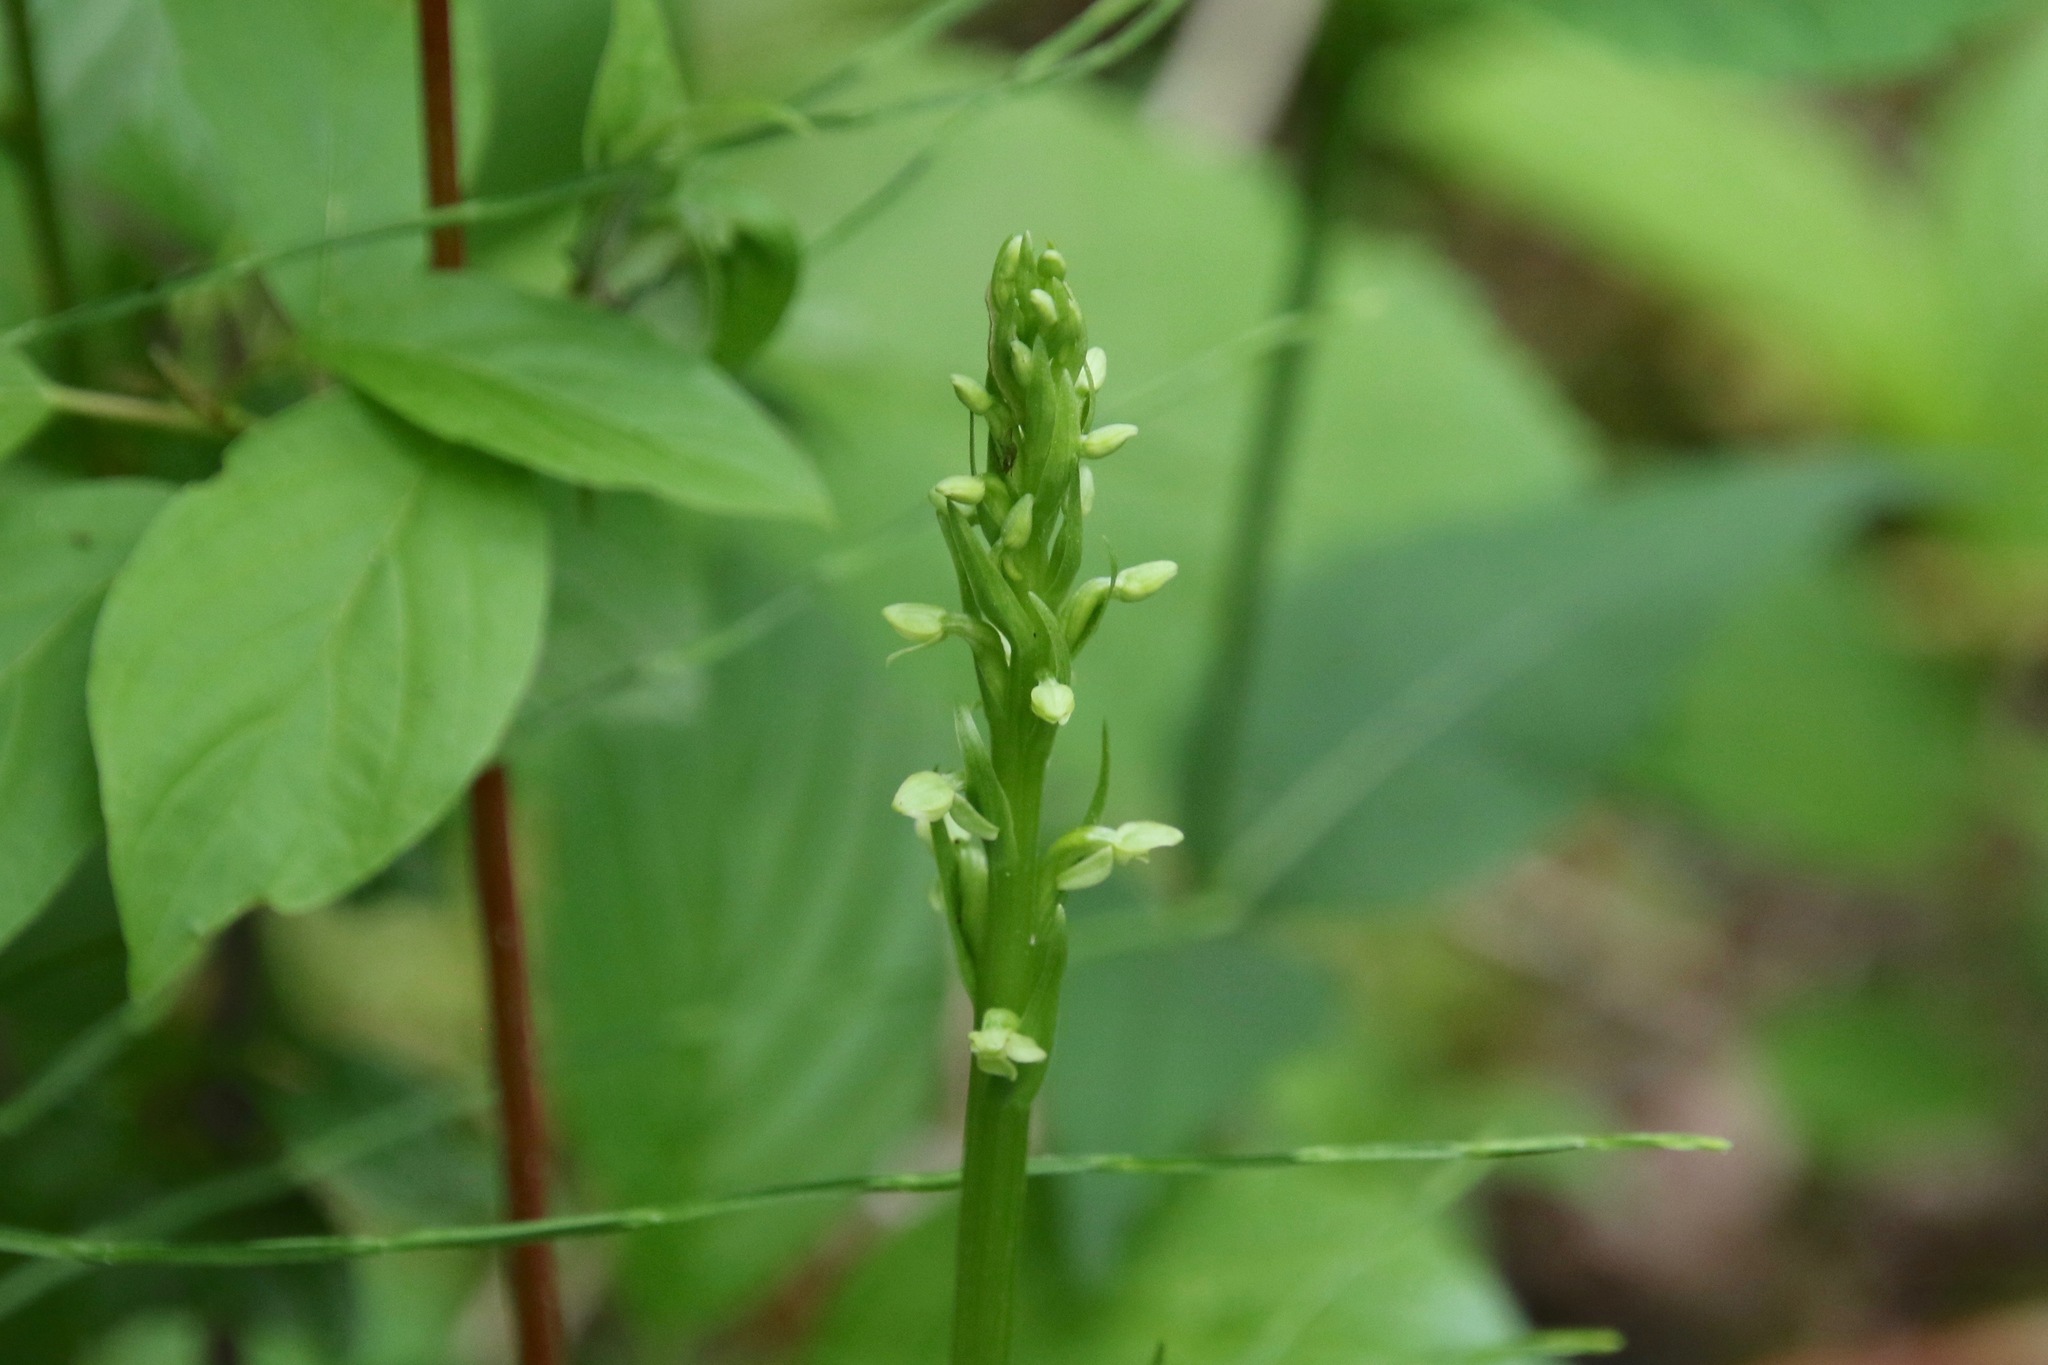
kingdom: Plantae
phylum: Tracheophyta
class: Liliopsida
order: Asparagales
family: Orchidaceae
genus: Platanthera
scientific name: Platanthera aquilonis
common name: Northern green orchid
